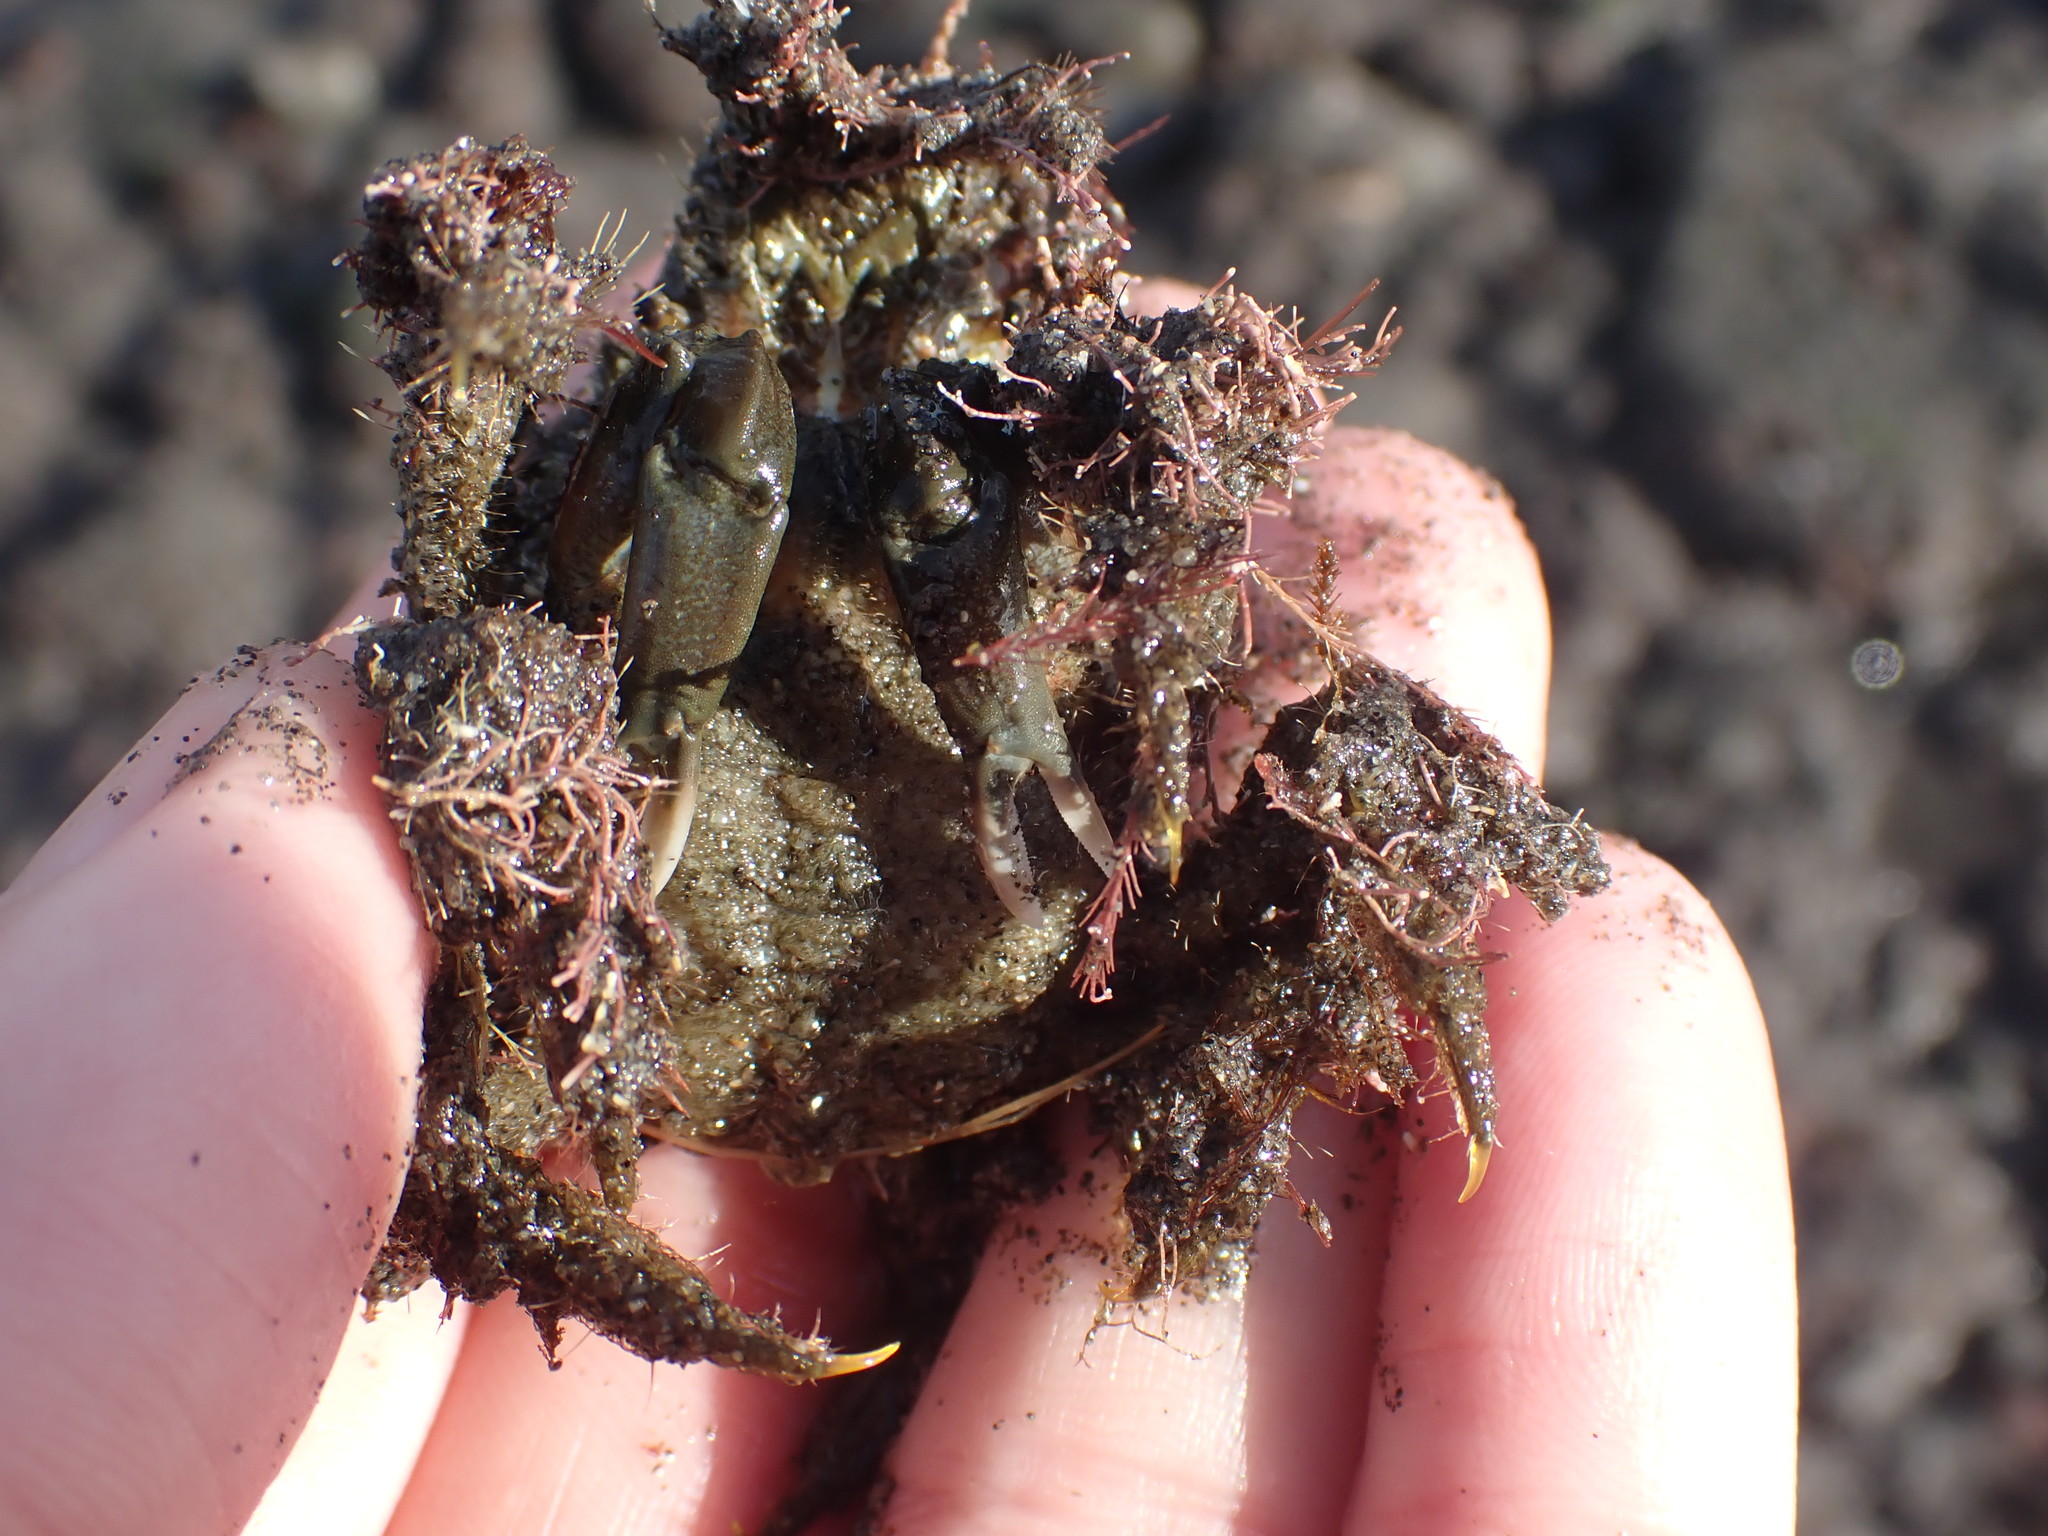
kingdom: Animalia
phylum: Arthropoda
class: Malacostraca
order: Decapoda
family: Majidae
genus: Notomithrax
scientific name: Notomithrax peronii
